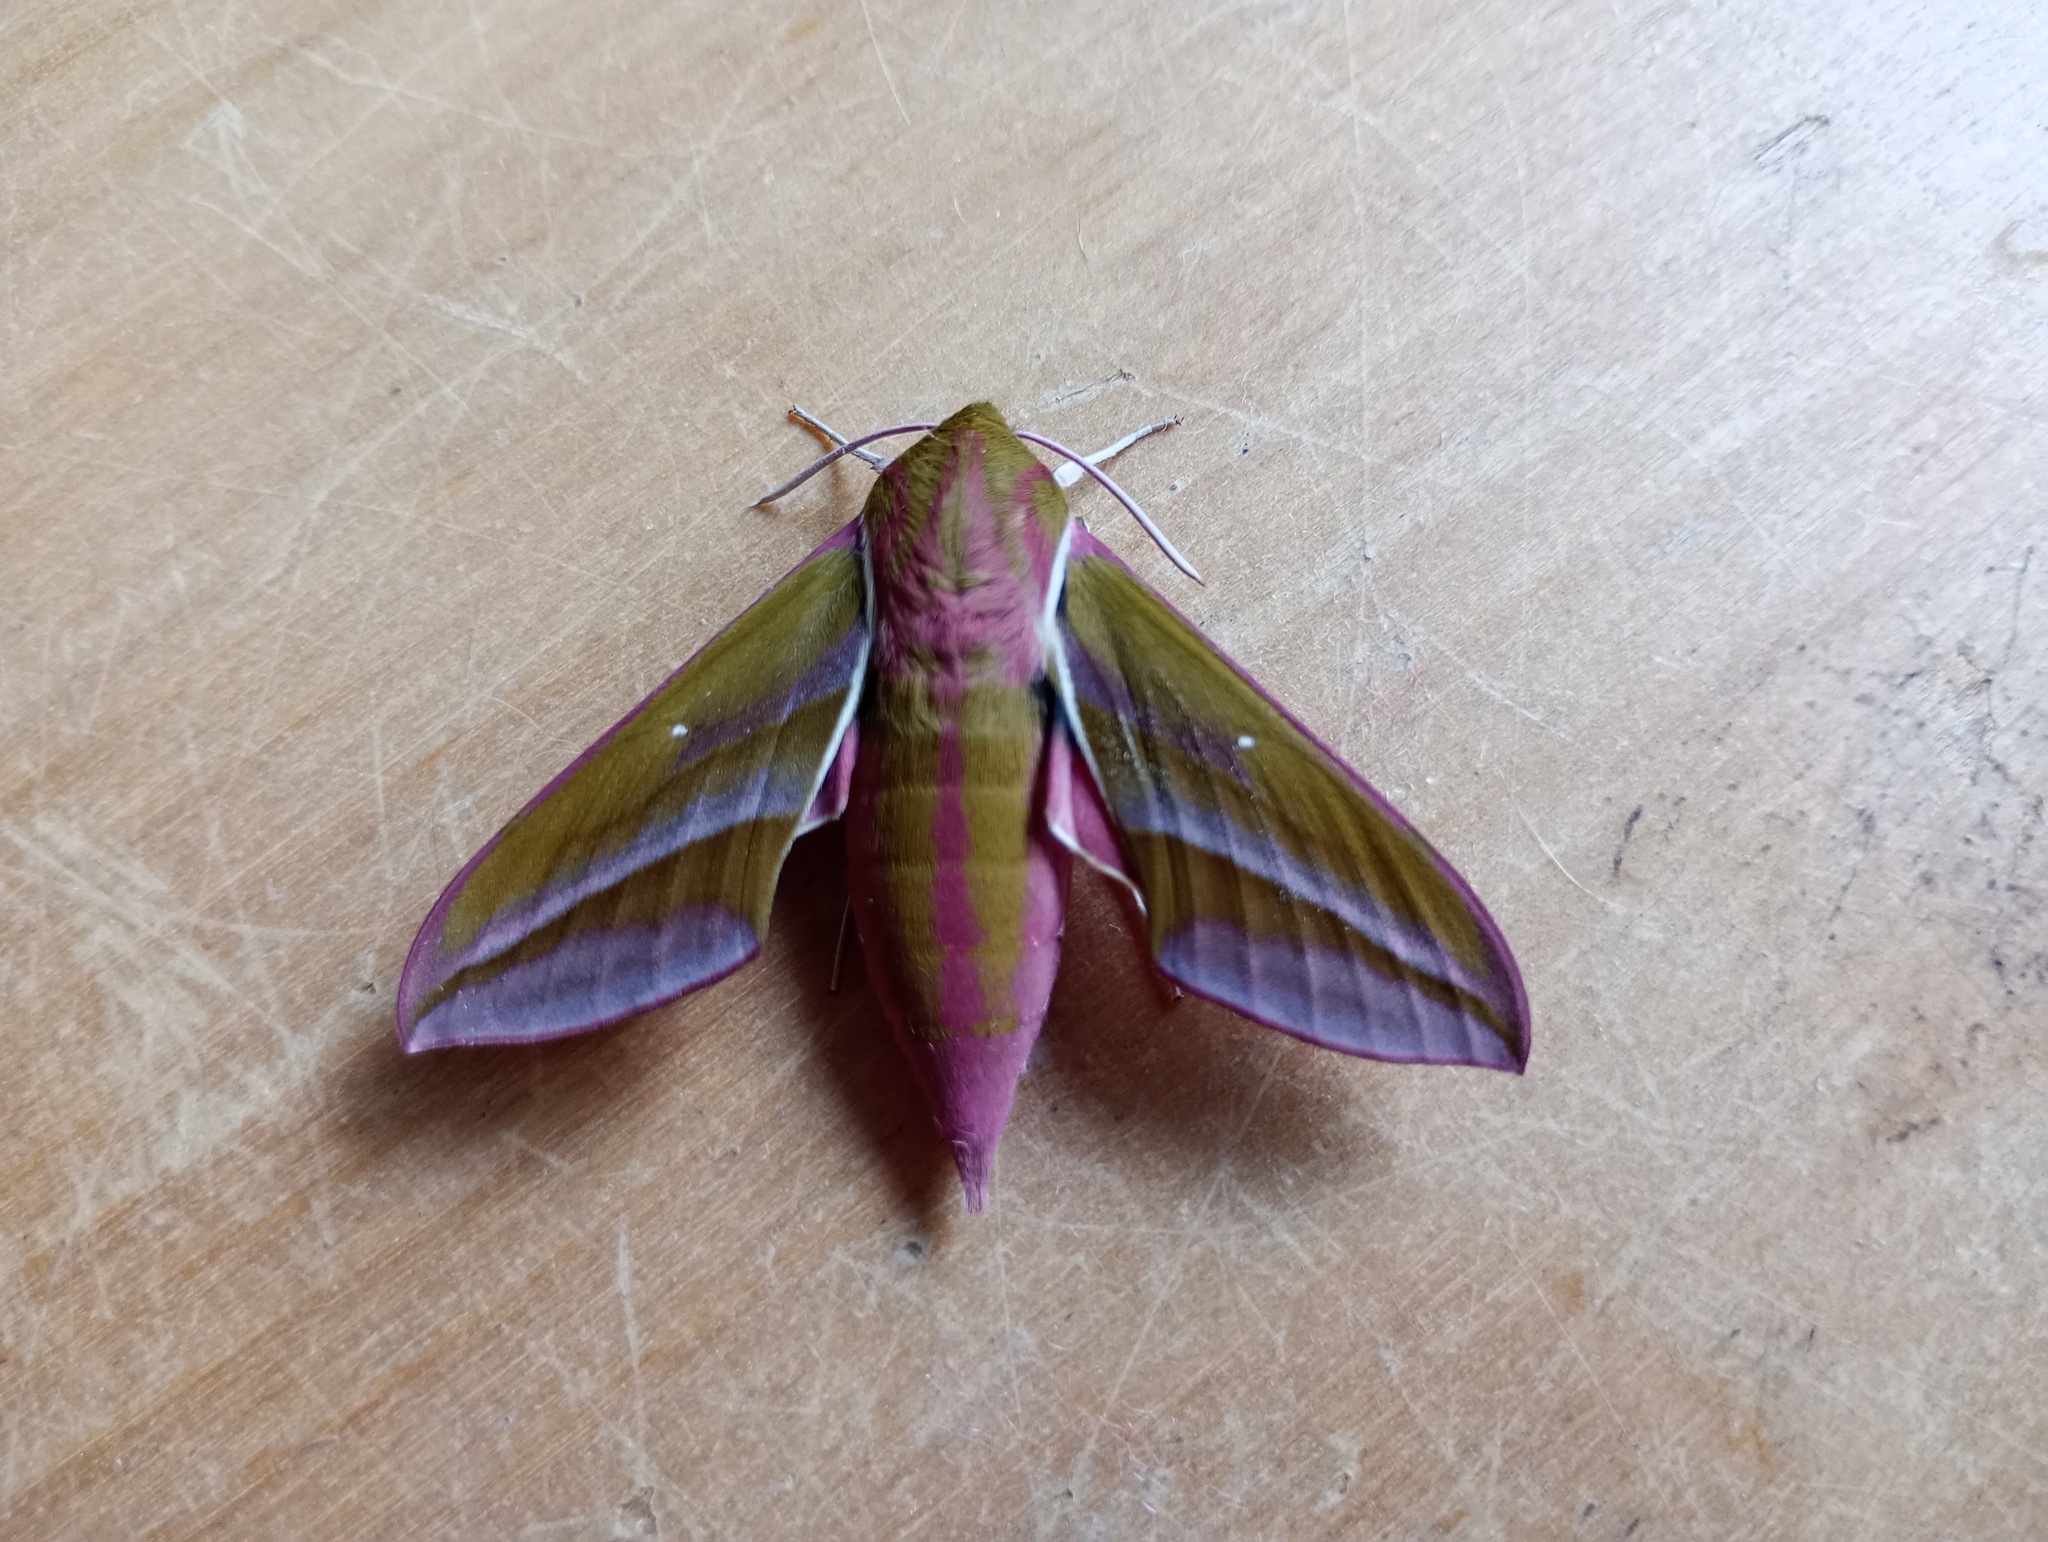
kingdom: Animalia
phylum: Arthropoda
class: Insecta
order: Lepidoptera
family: Sphingidae
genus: Deilephila
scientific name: Deilephila elpenor
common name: Elephant hawk-moth
